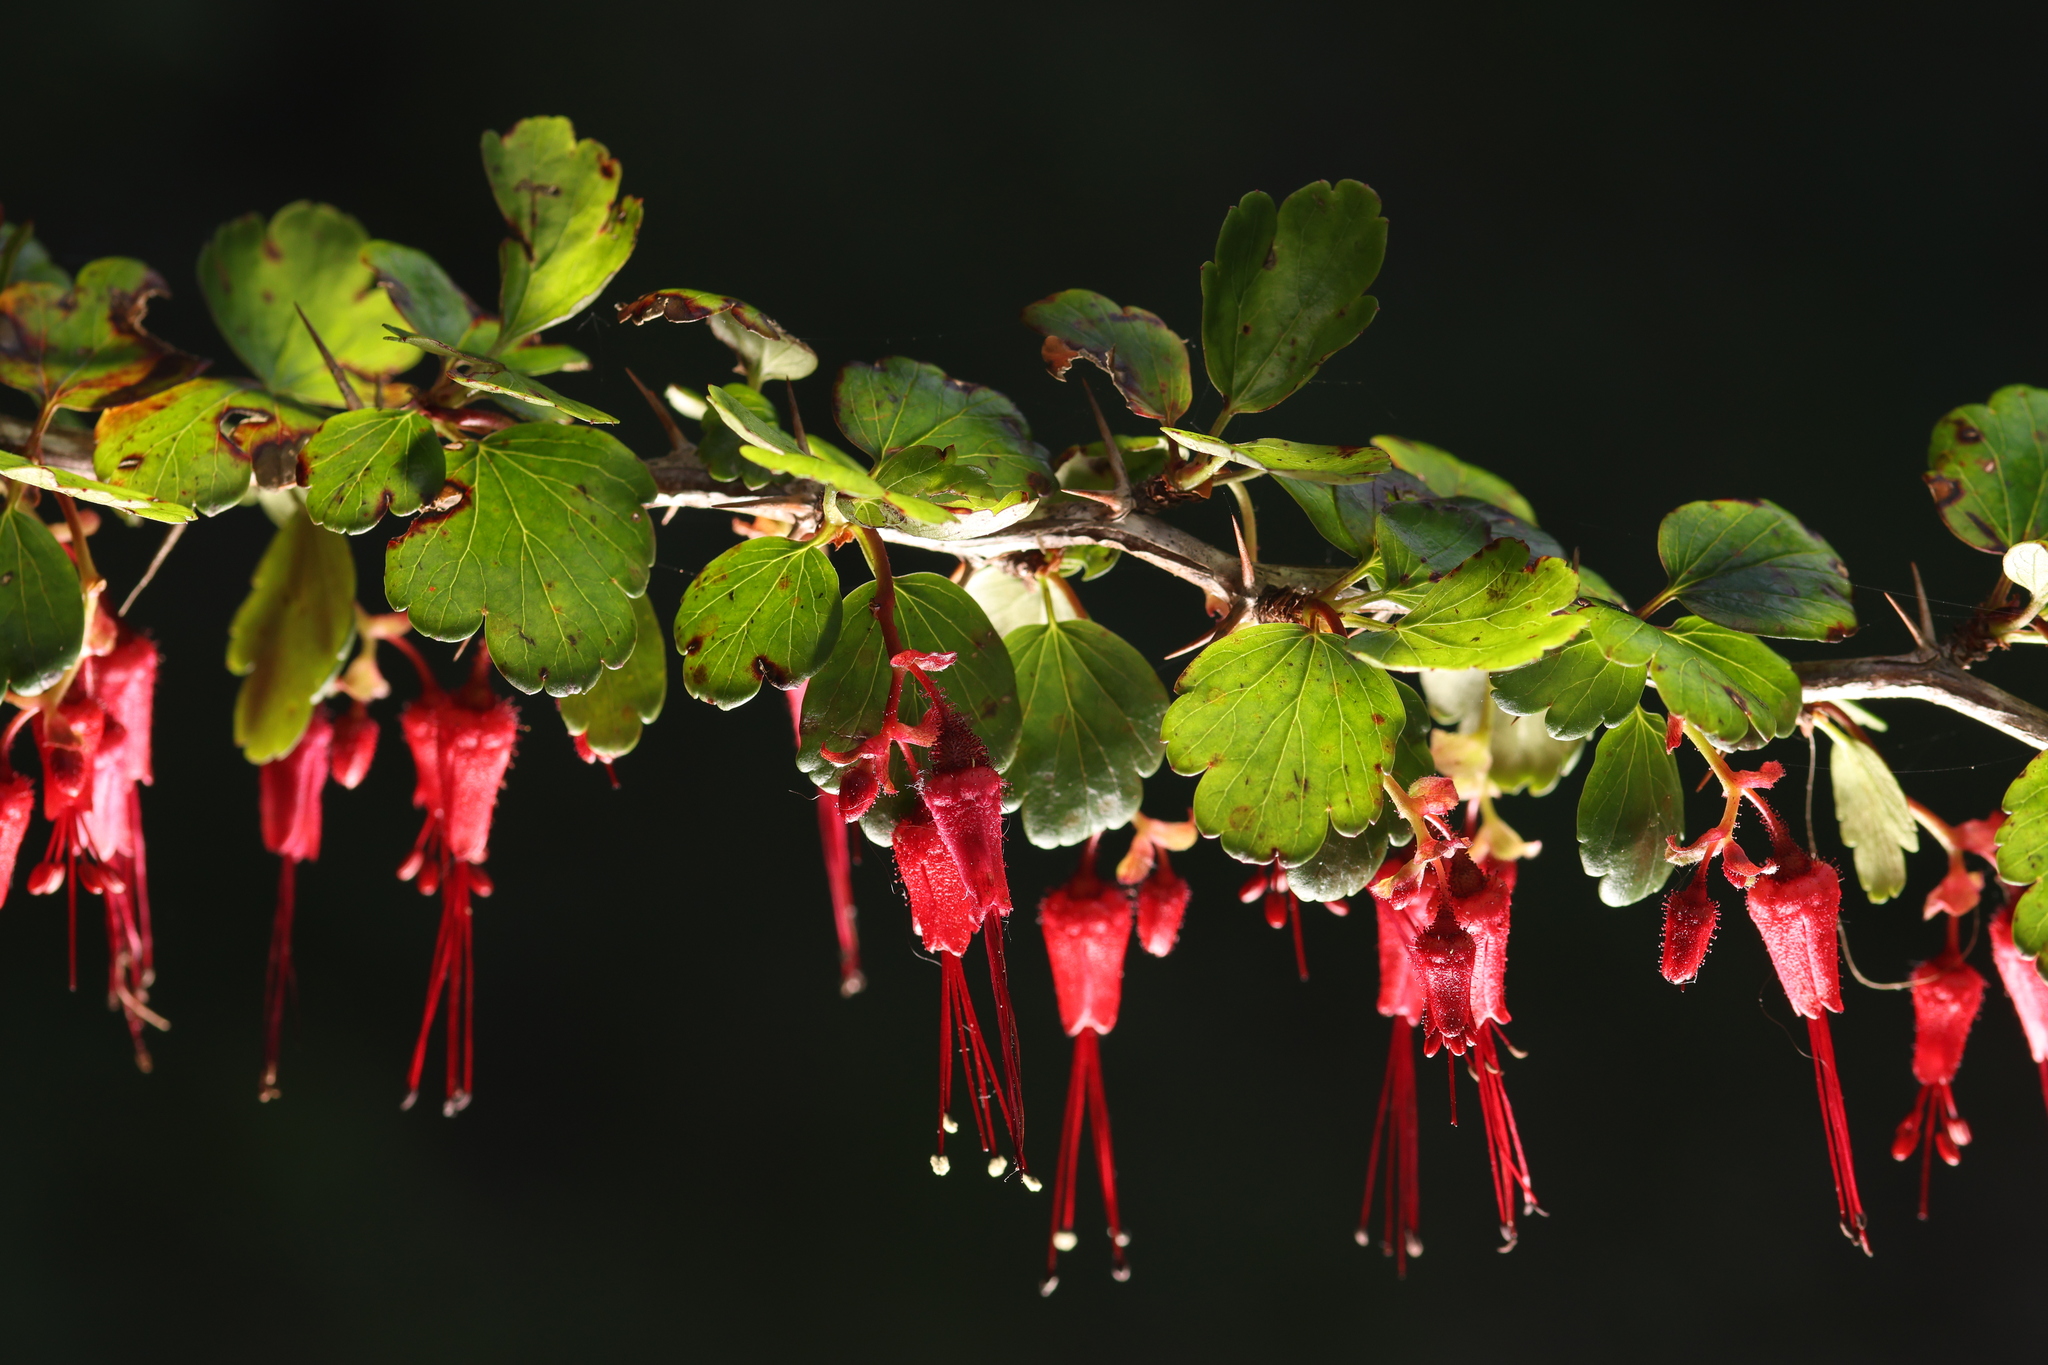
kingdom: Plantae
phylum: Tracheophyta
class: Magnoliopsida
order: Saxifragales
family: Grossulariaceae
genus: Ribes
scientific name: Ribes speciosum
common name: Fuchsia-flower gooseberry
